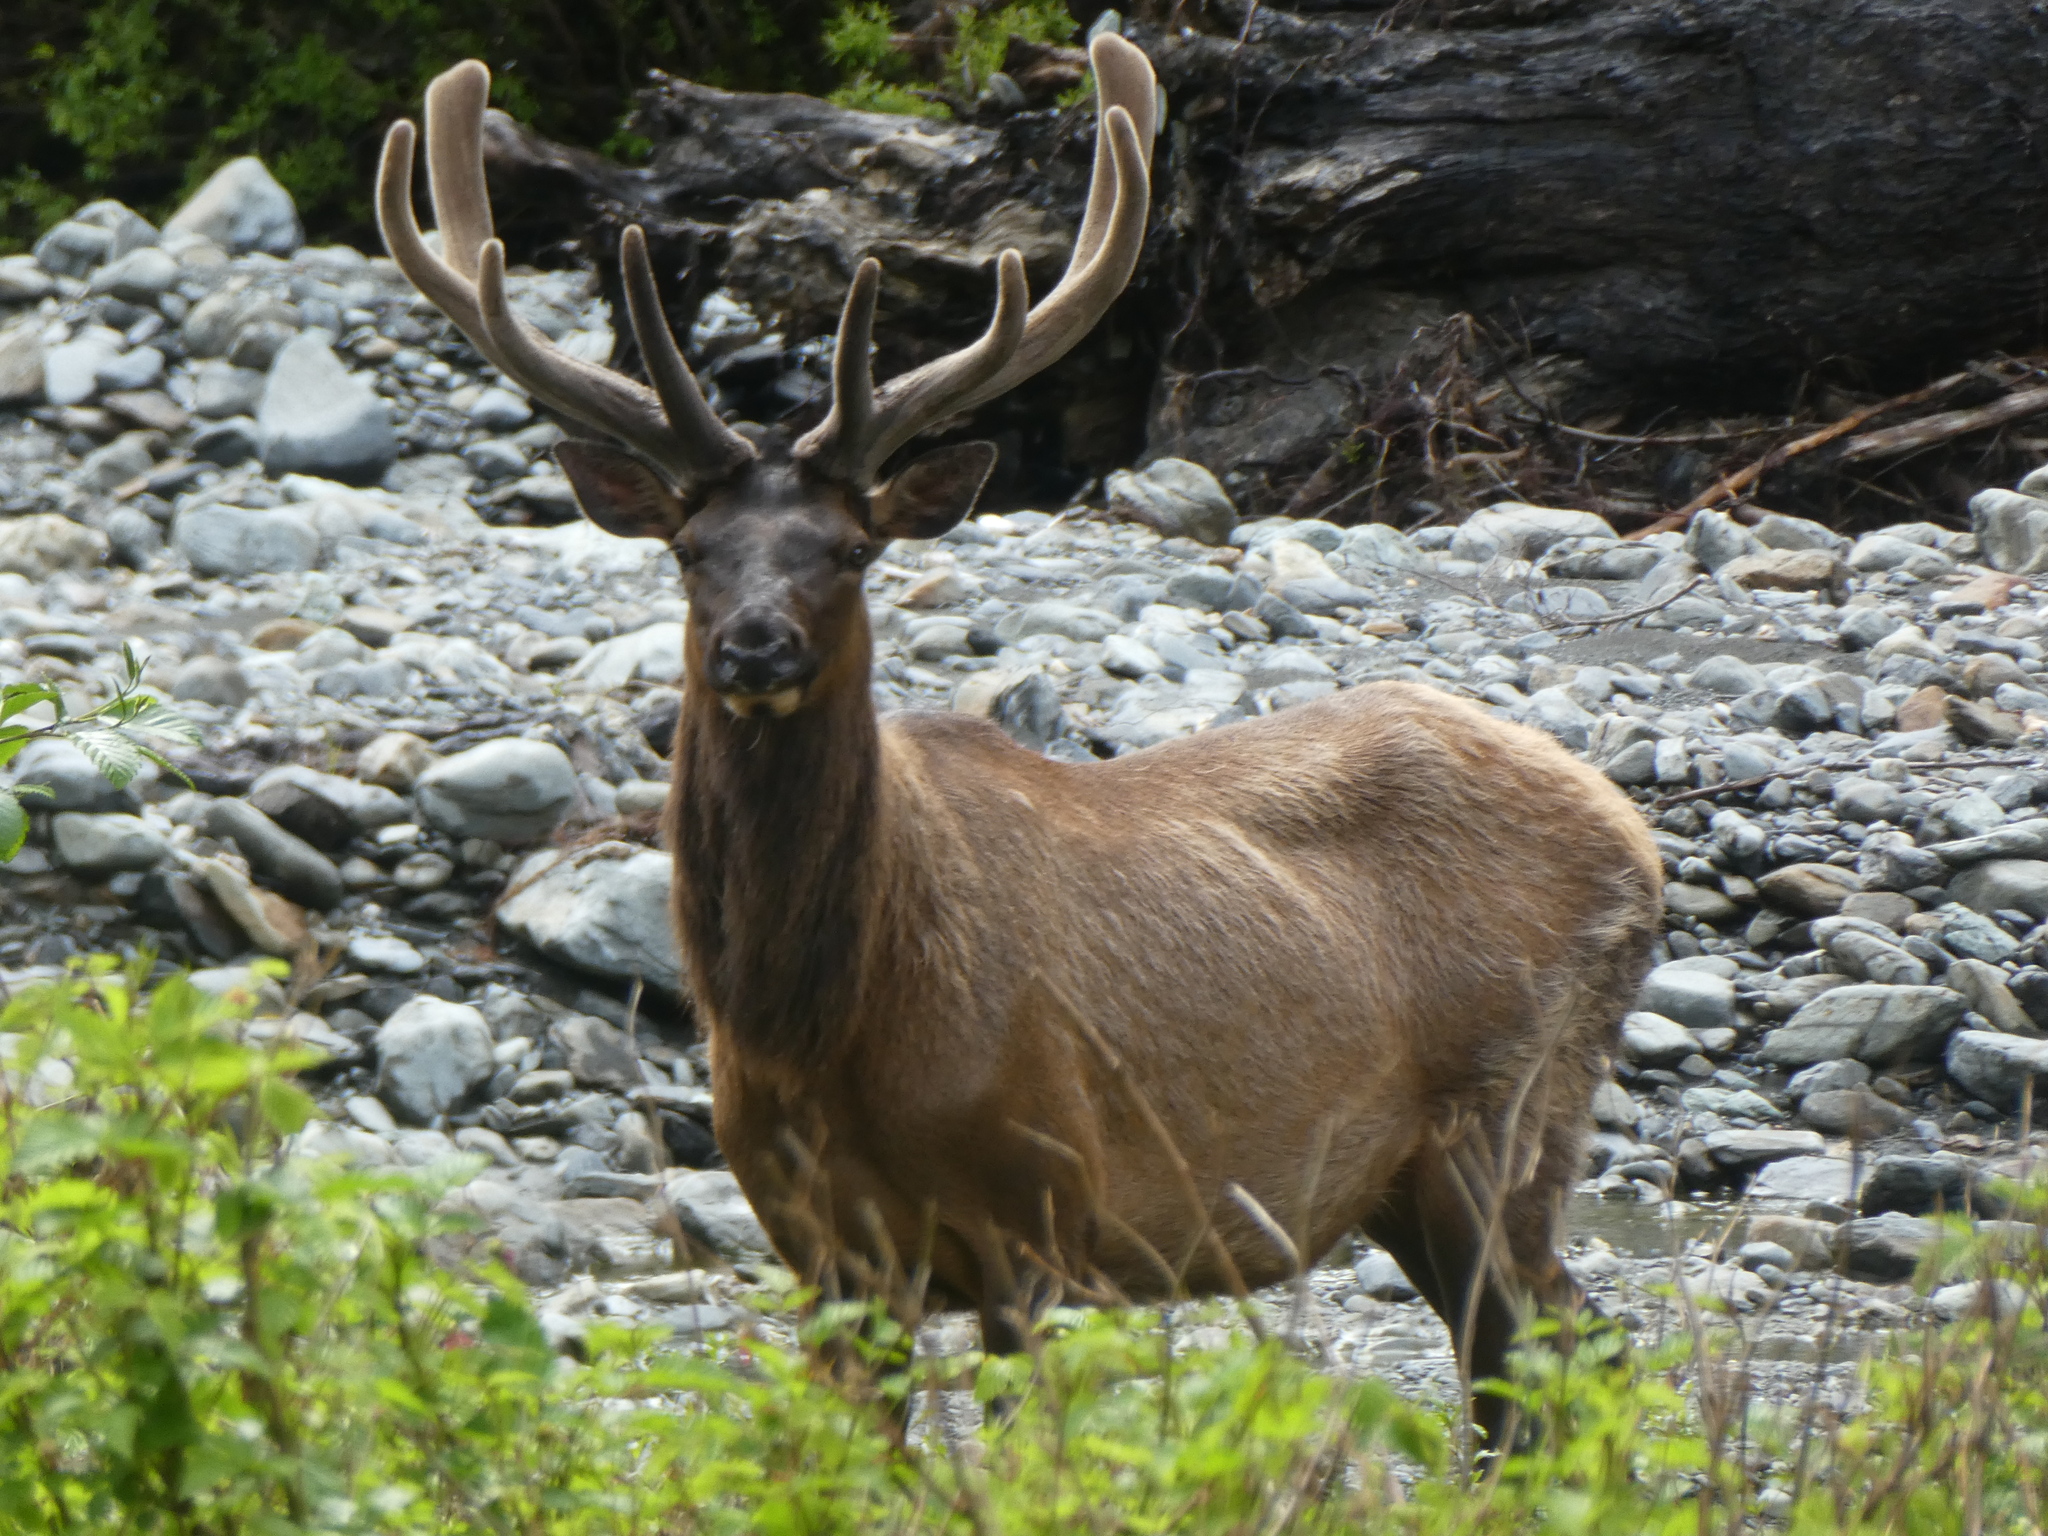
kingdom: Animalia
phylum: Chordata
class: Mammalia
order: Artiodactyla
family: Cervidae
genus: Cervus
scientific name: Cervus elaphus
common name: Red deer
